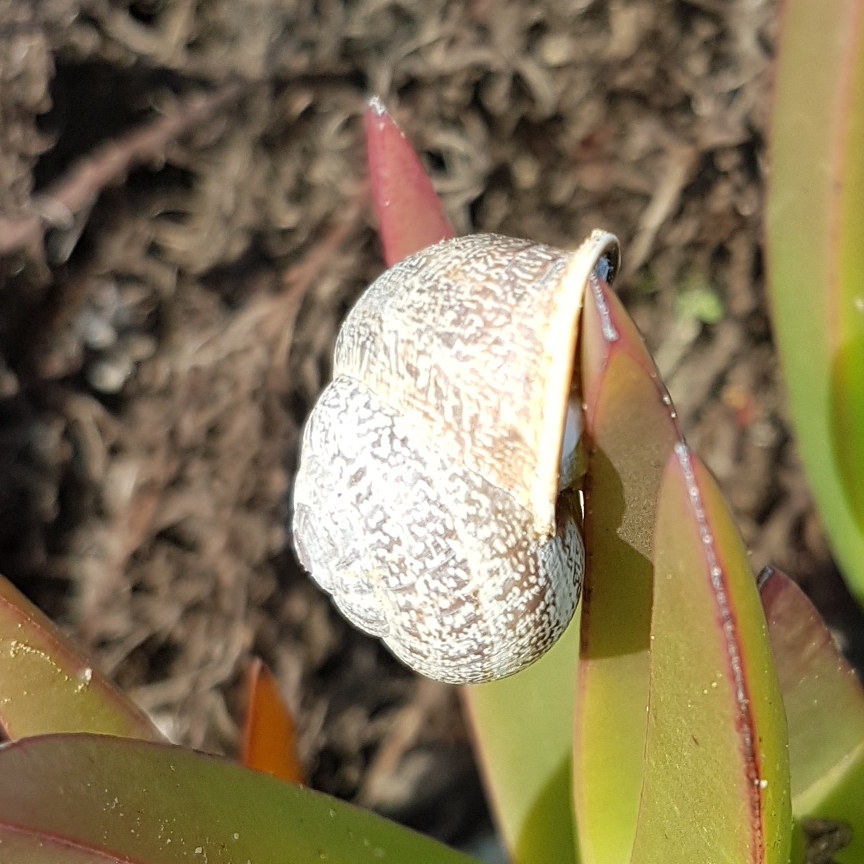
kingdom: Animalia
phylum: Mollusca
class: Gastropoda
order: Stylommatophora
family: Helicidae
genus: Otala
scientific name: Otala lactea
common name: Milk snail
